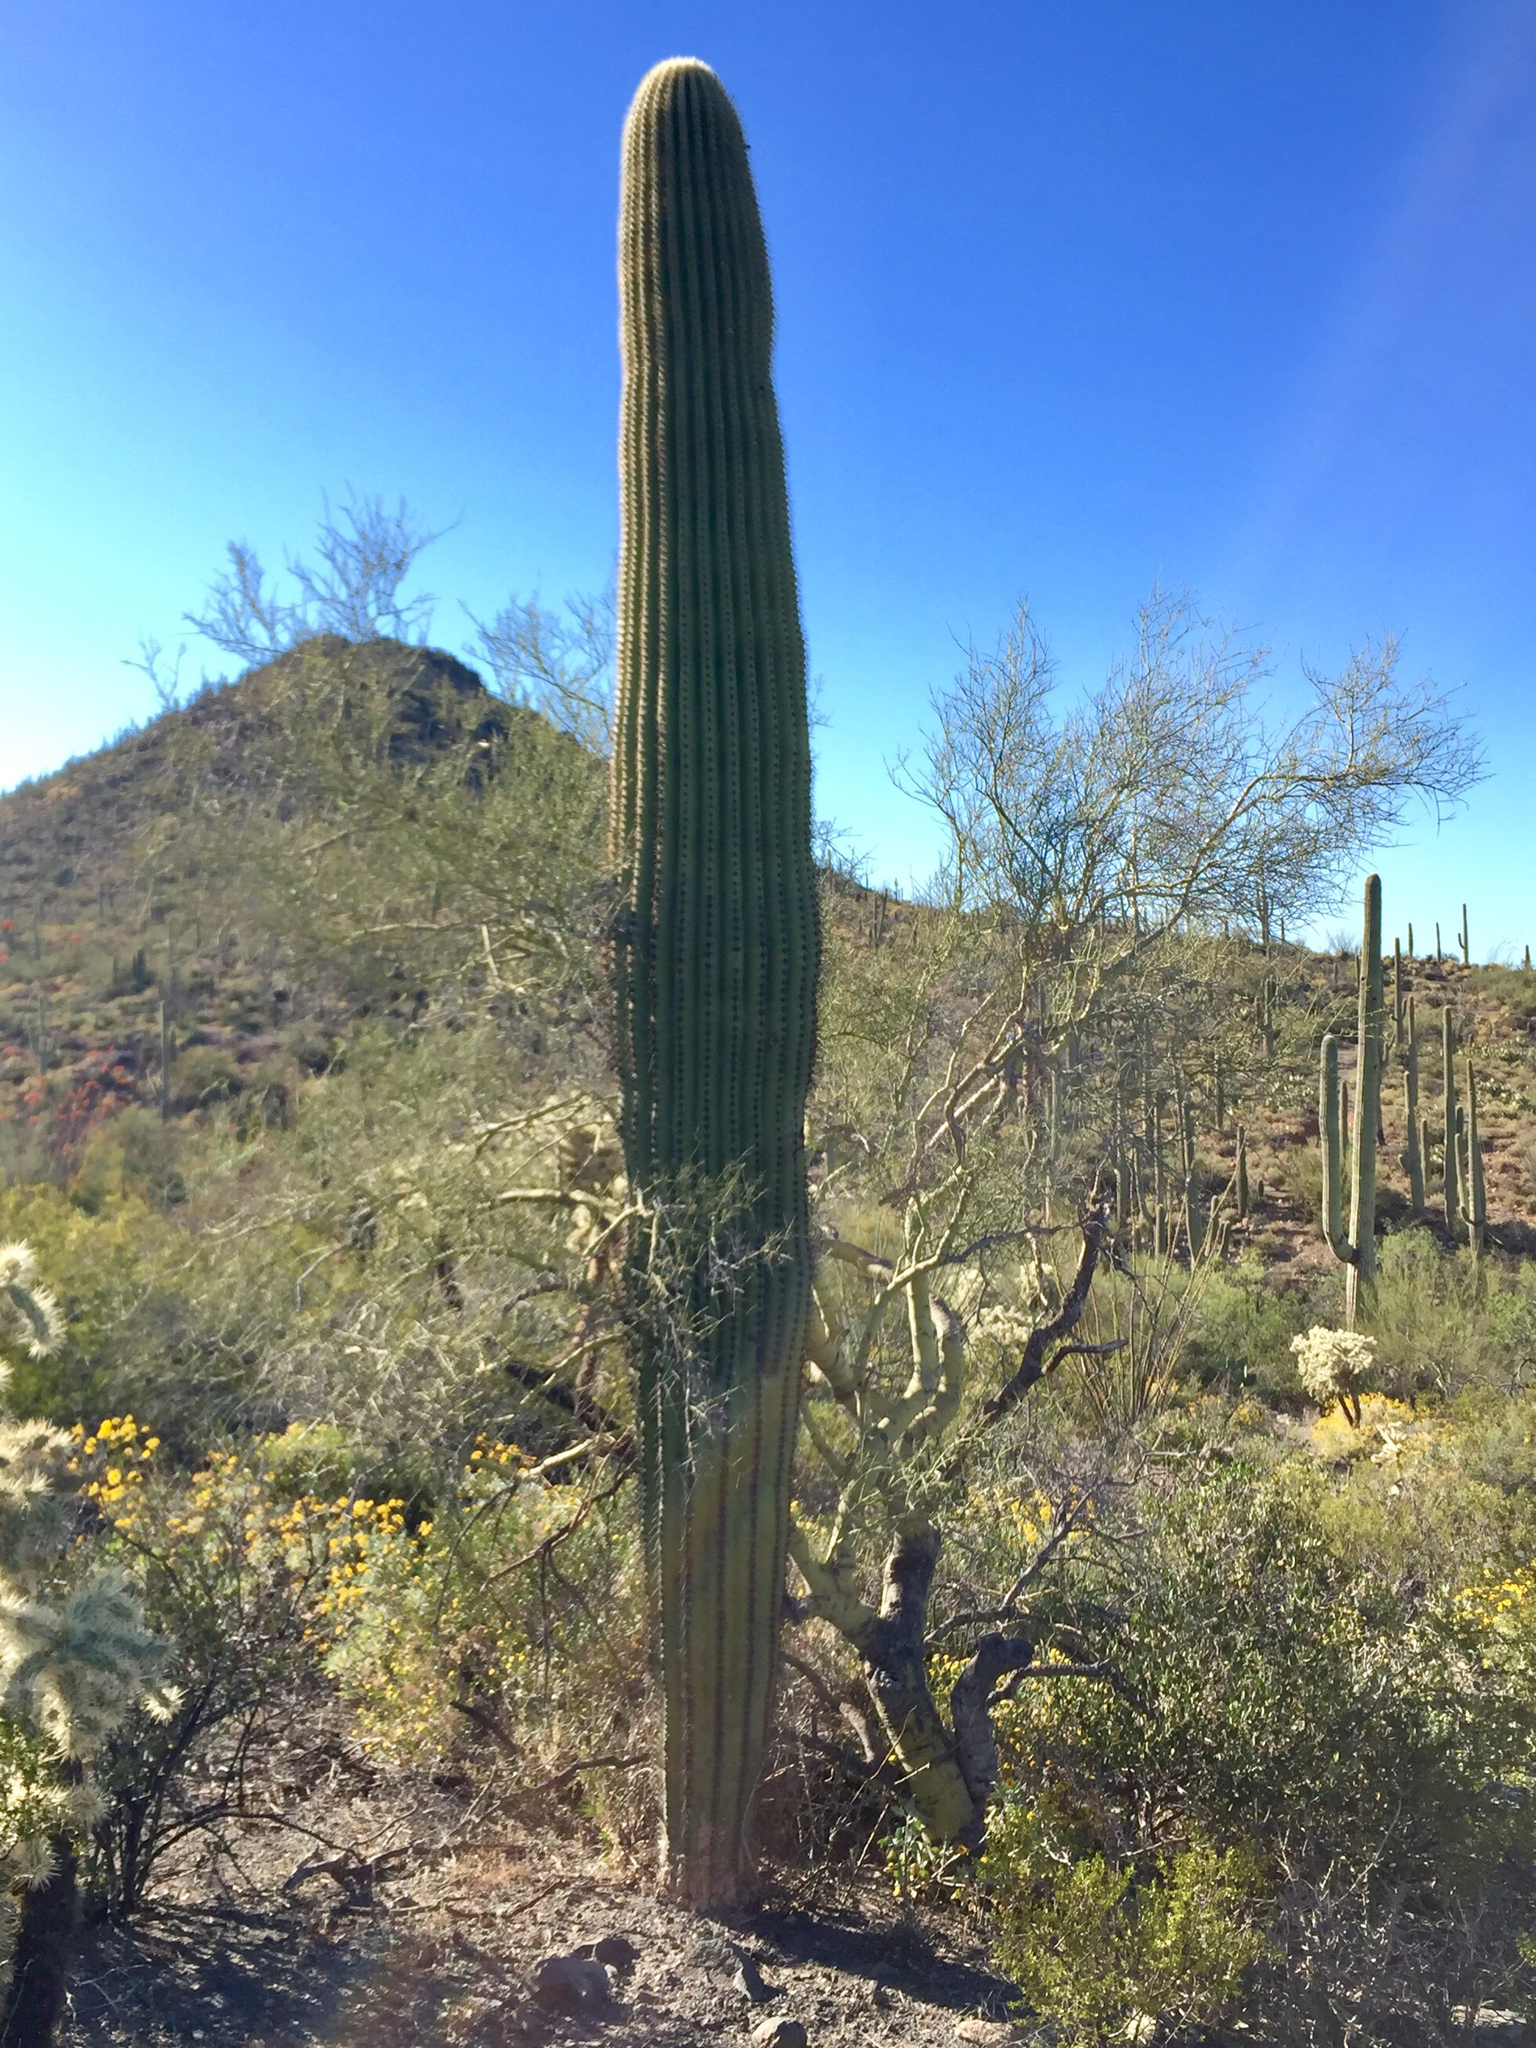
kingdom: Plantae
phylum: Tracheophyta
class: Magnoliopsida
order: Caryophyllales
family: Cactaceae
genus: Carnegiea
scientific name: Carnegiea gigantea
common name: Saguaro
